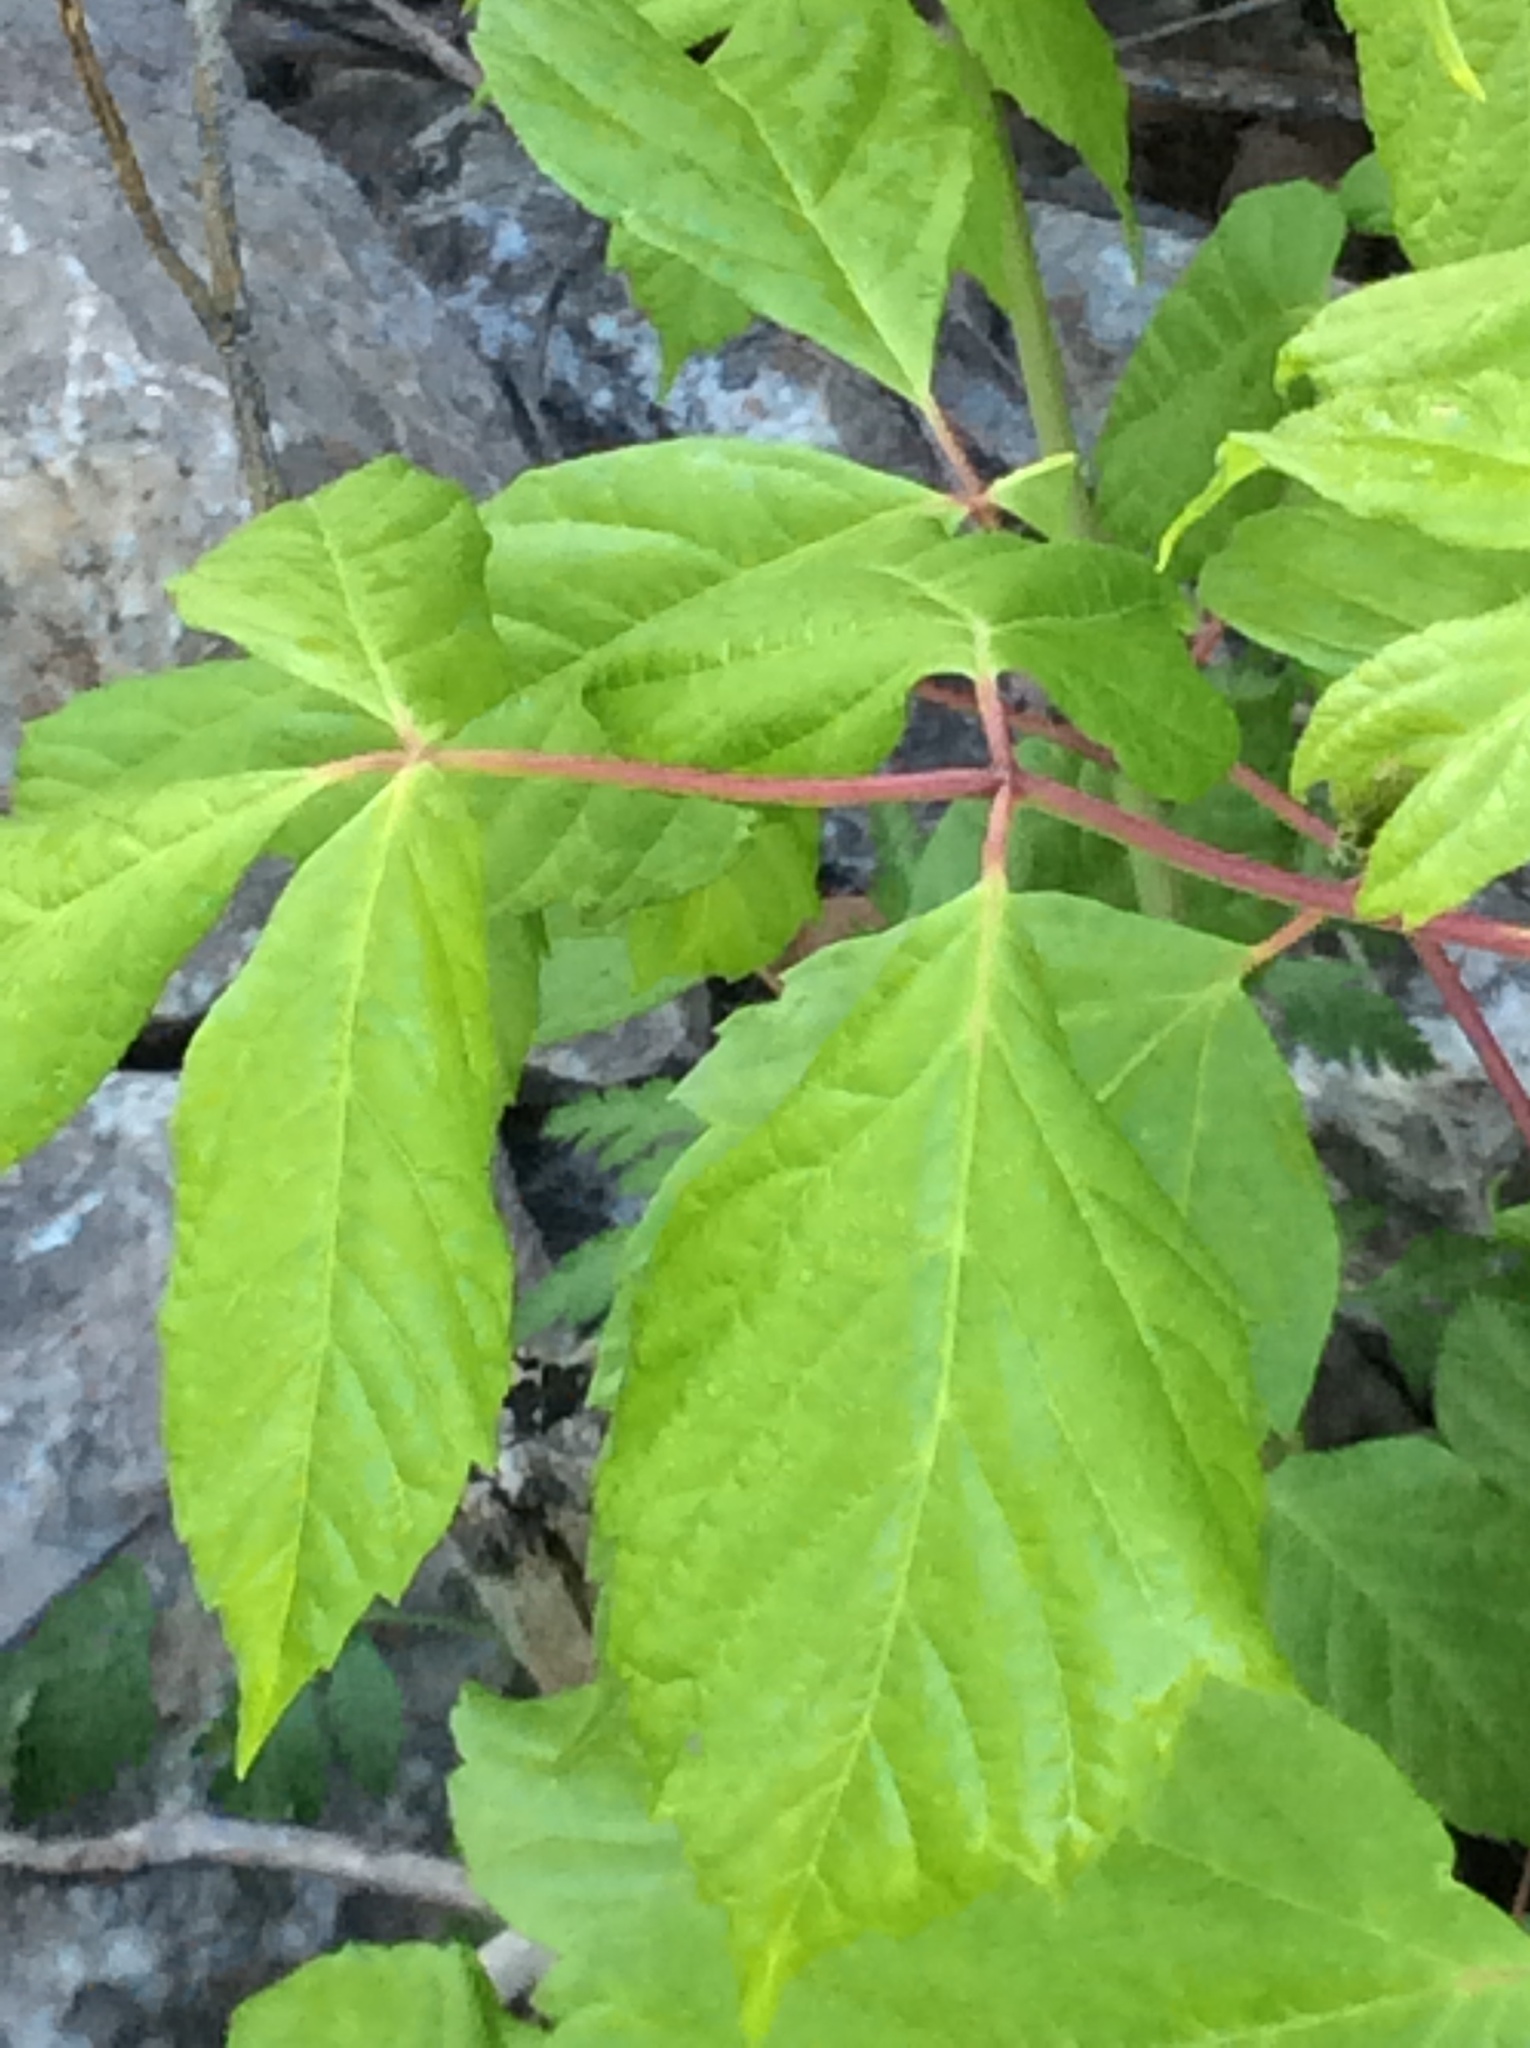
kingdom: Plantae
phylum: Tracheophyta
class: Magnoliopsida
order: Sapindales
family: Sapindaceae
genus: Acer
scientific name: Acer negundo
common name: Ashleaf maple
